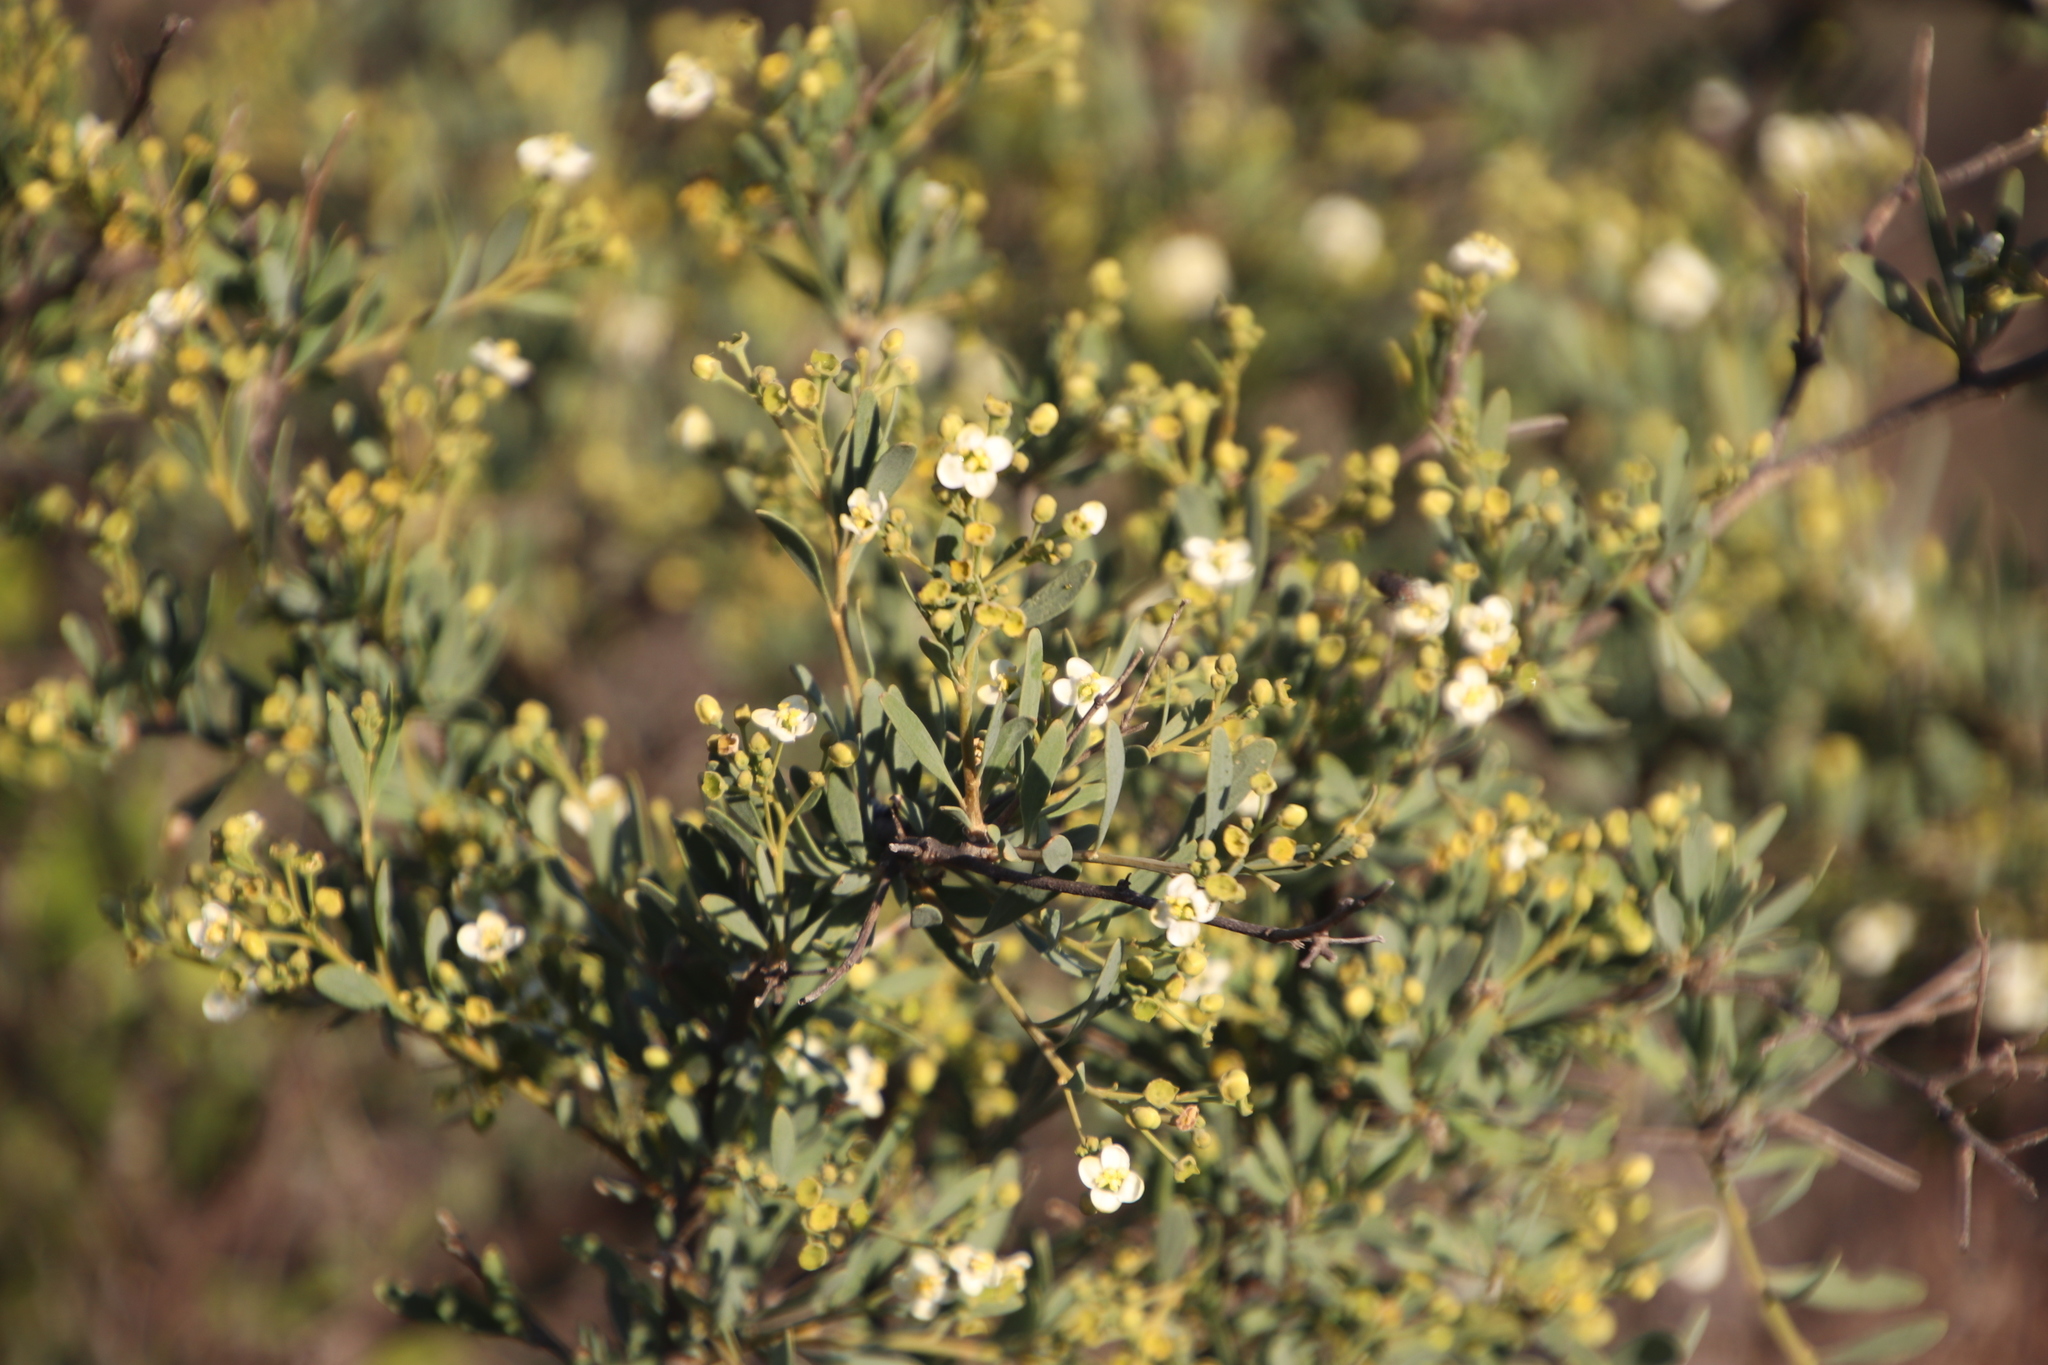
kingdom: Plantae
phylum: Tracheophyta
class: Magnoliopsida
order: Solanales
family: Montiniaceae
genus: Montinia
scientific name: Montinia caryophyllacea
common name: Wild clove-bush
